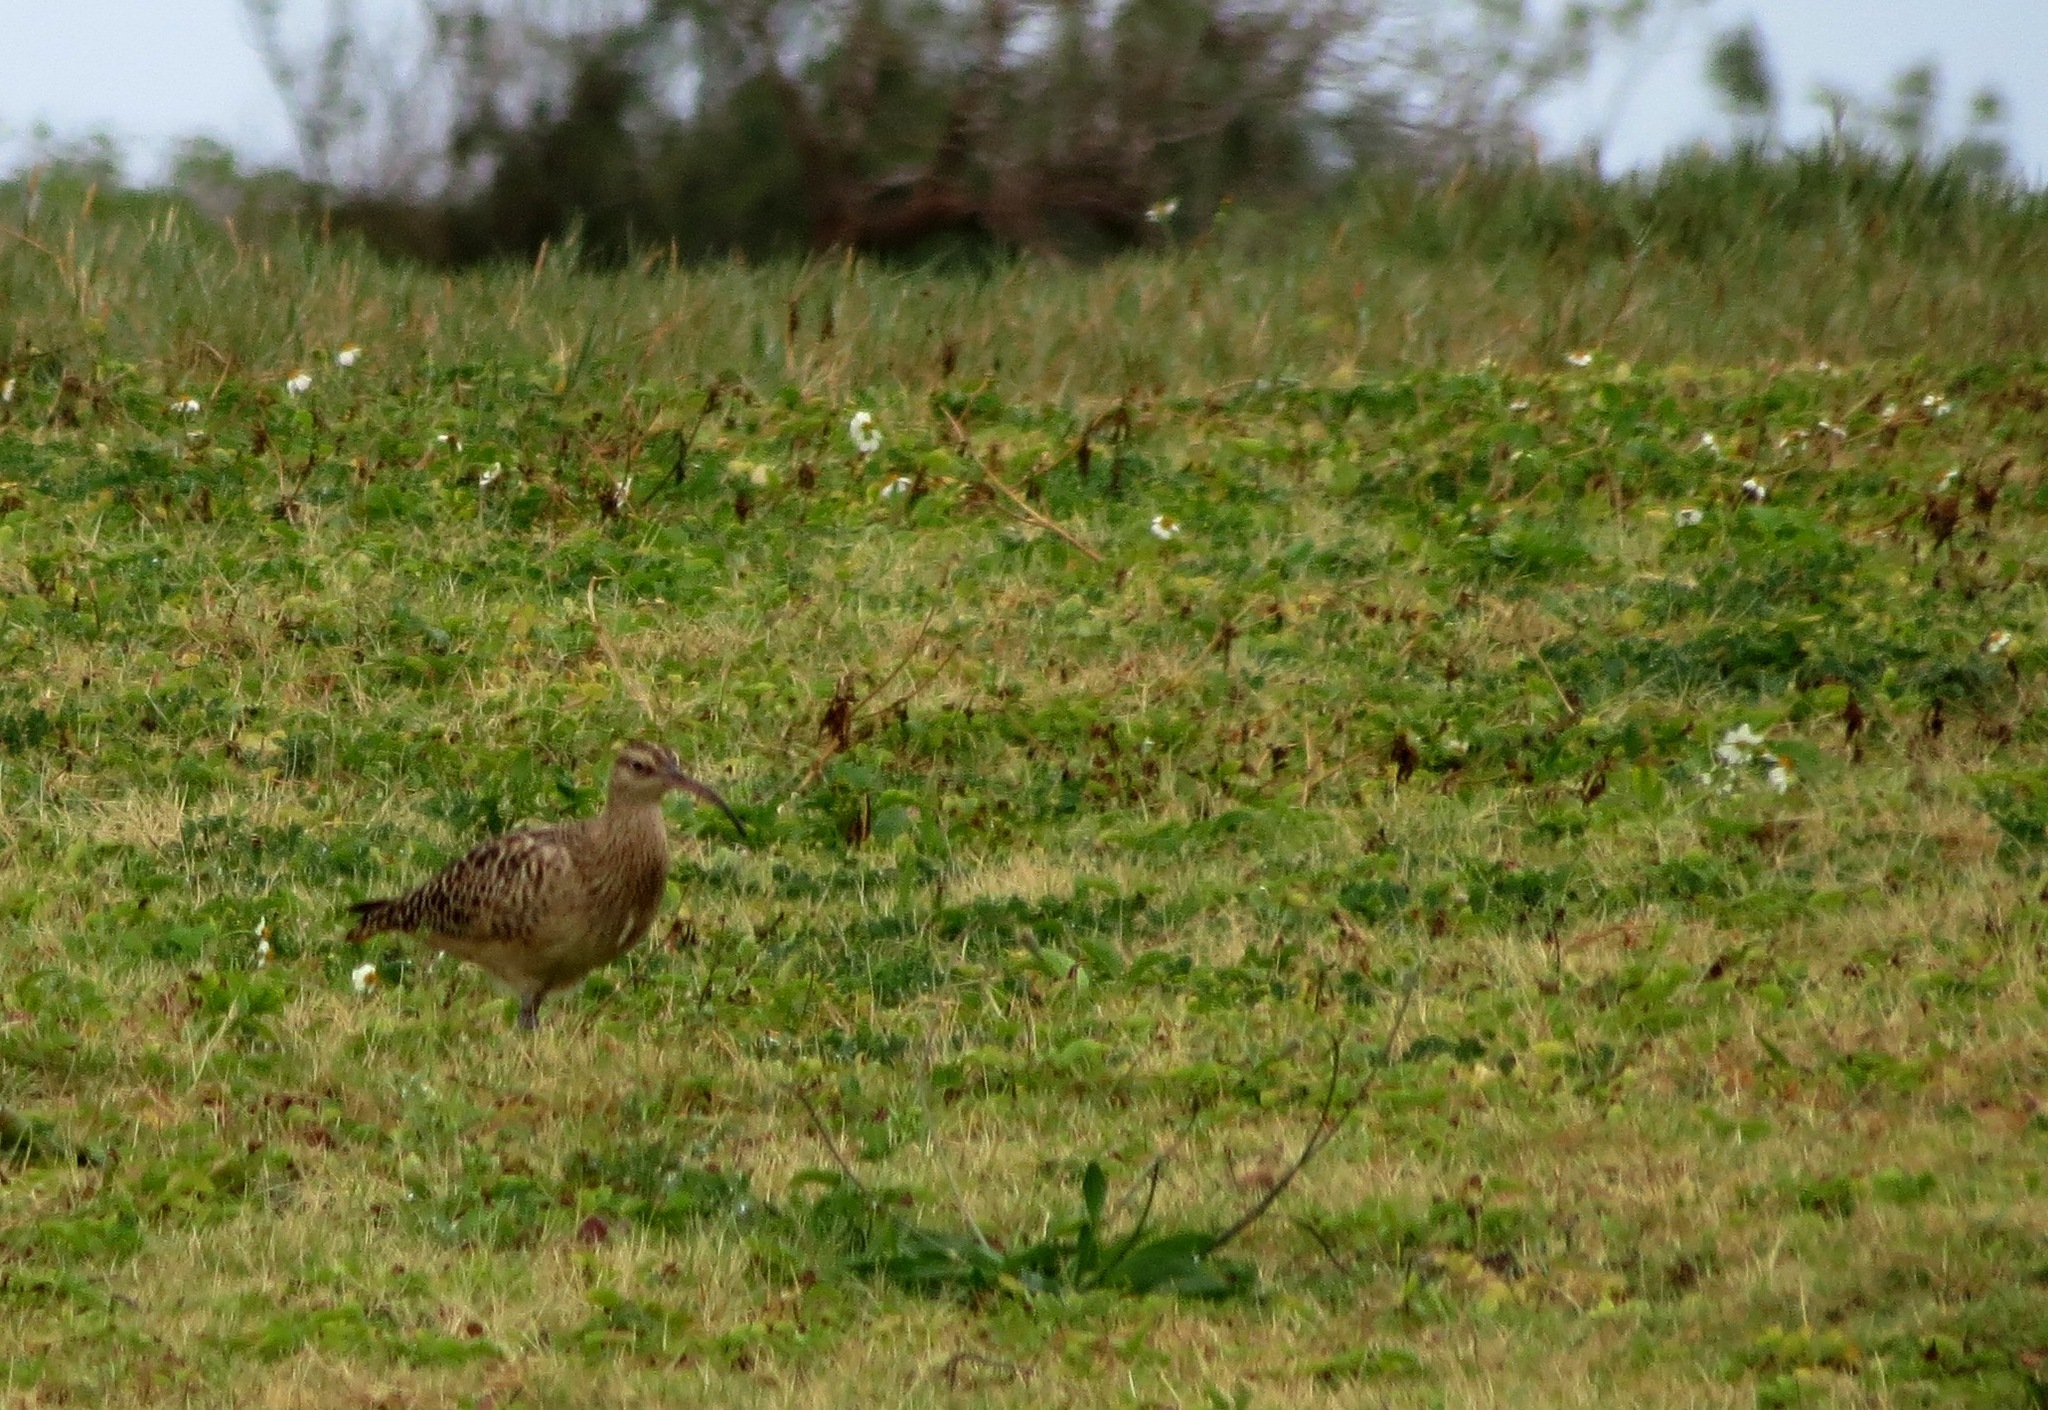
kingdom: Animalia
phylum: Chordata
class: Aves
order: Charadriiformes
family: Scolopacidae
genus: Numenius
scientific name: Numenius tahitiensis
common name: Bristle-thighed curlew
